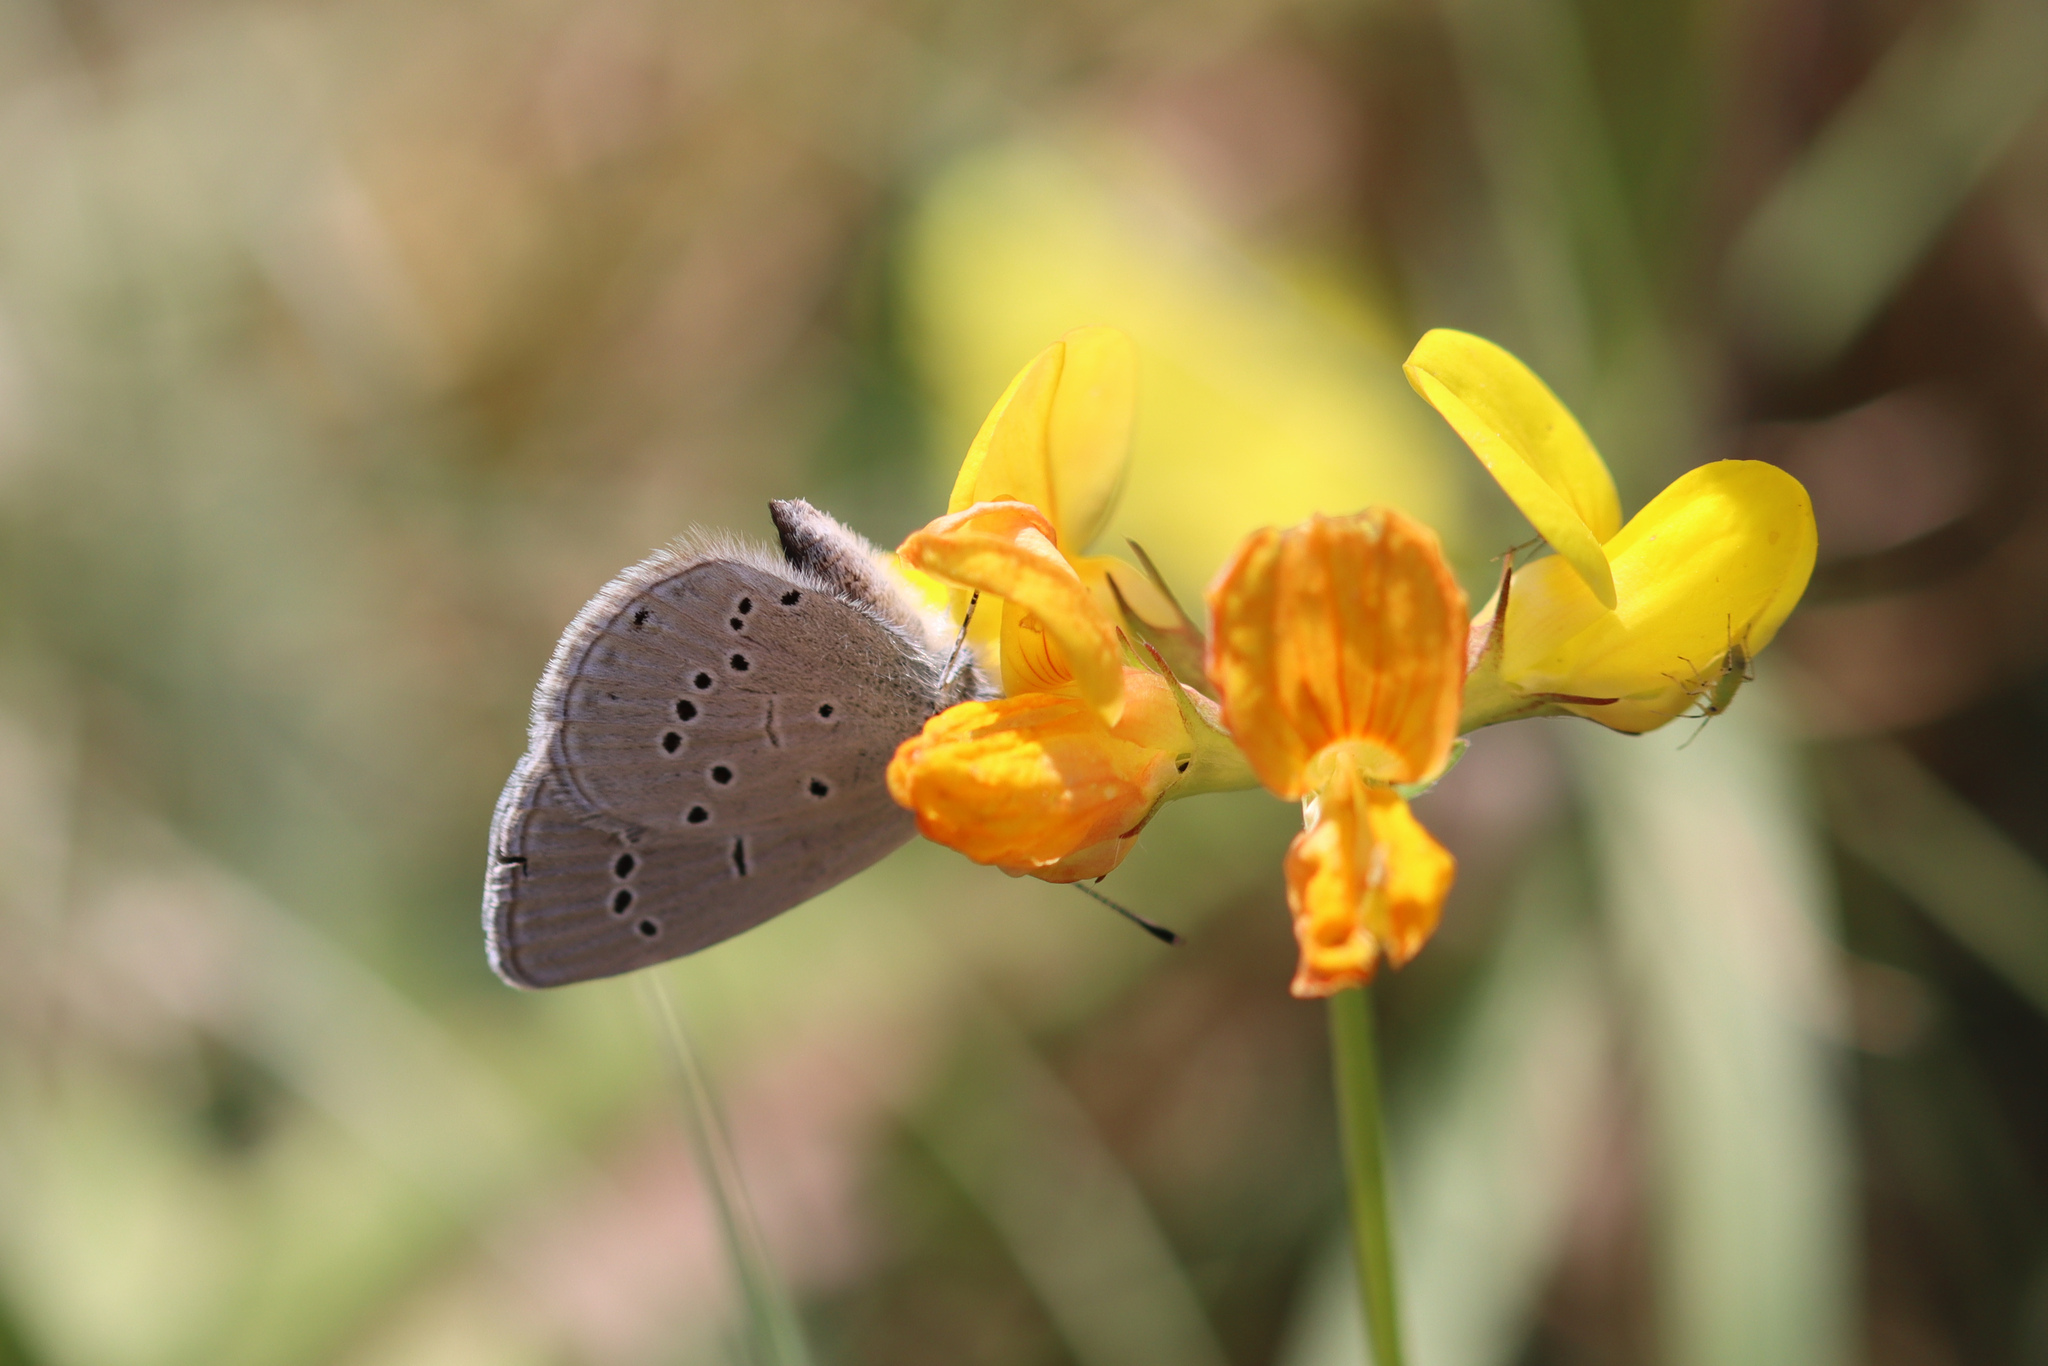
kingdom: Animalia
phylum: Arthropoda
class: Insecta
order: Lepidoptera
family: Lycaenidae
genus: Cupido
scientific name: Cupido minimus
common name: Small blue
